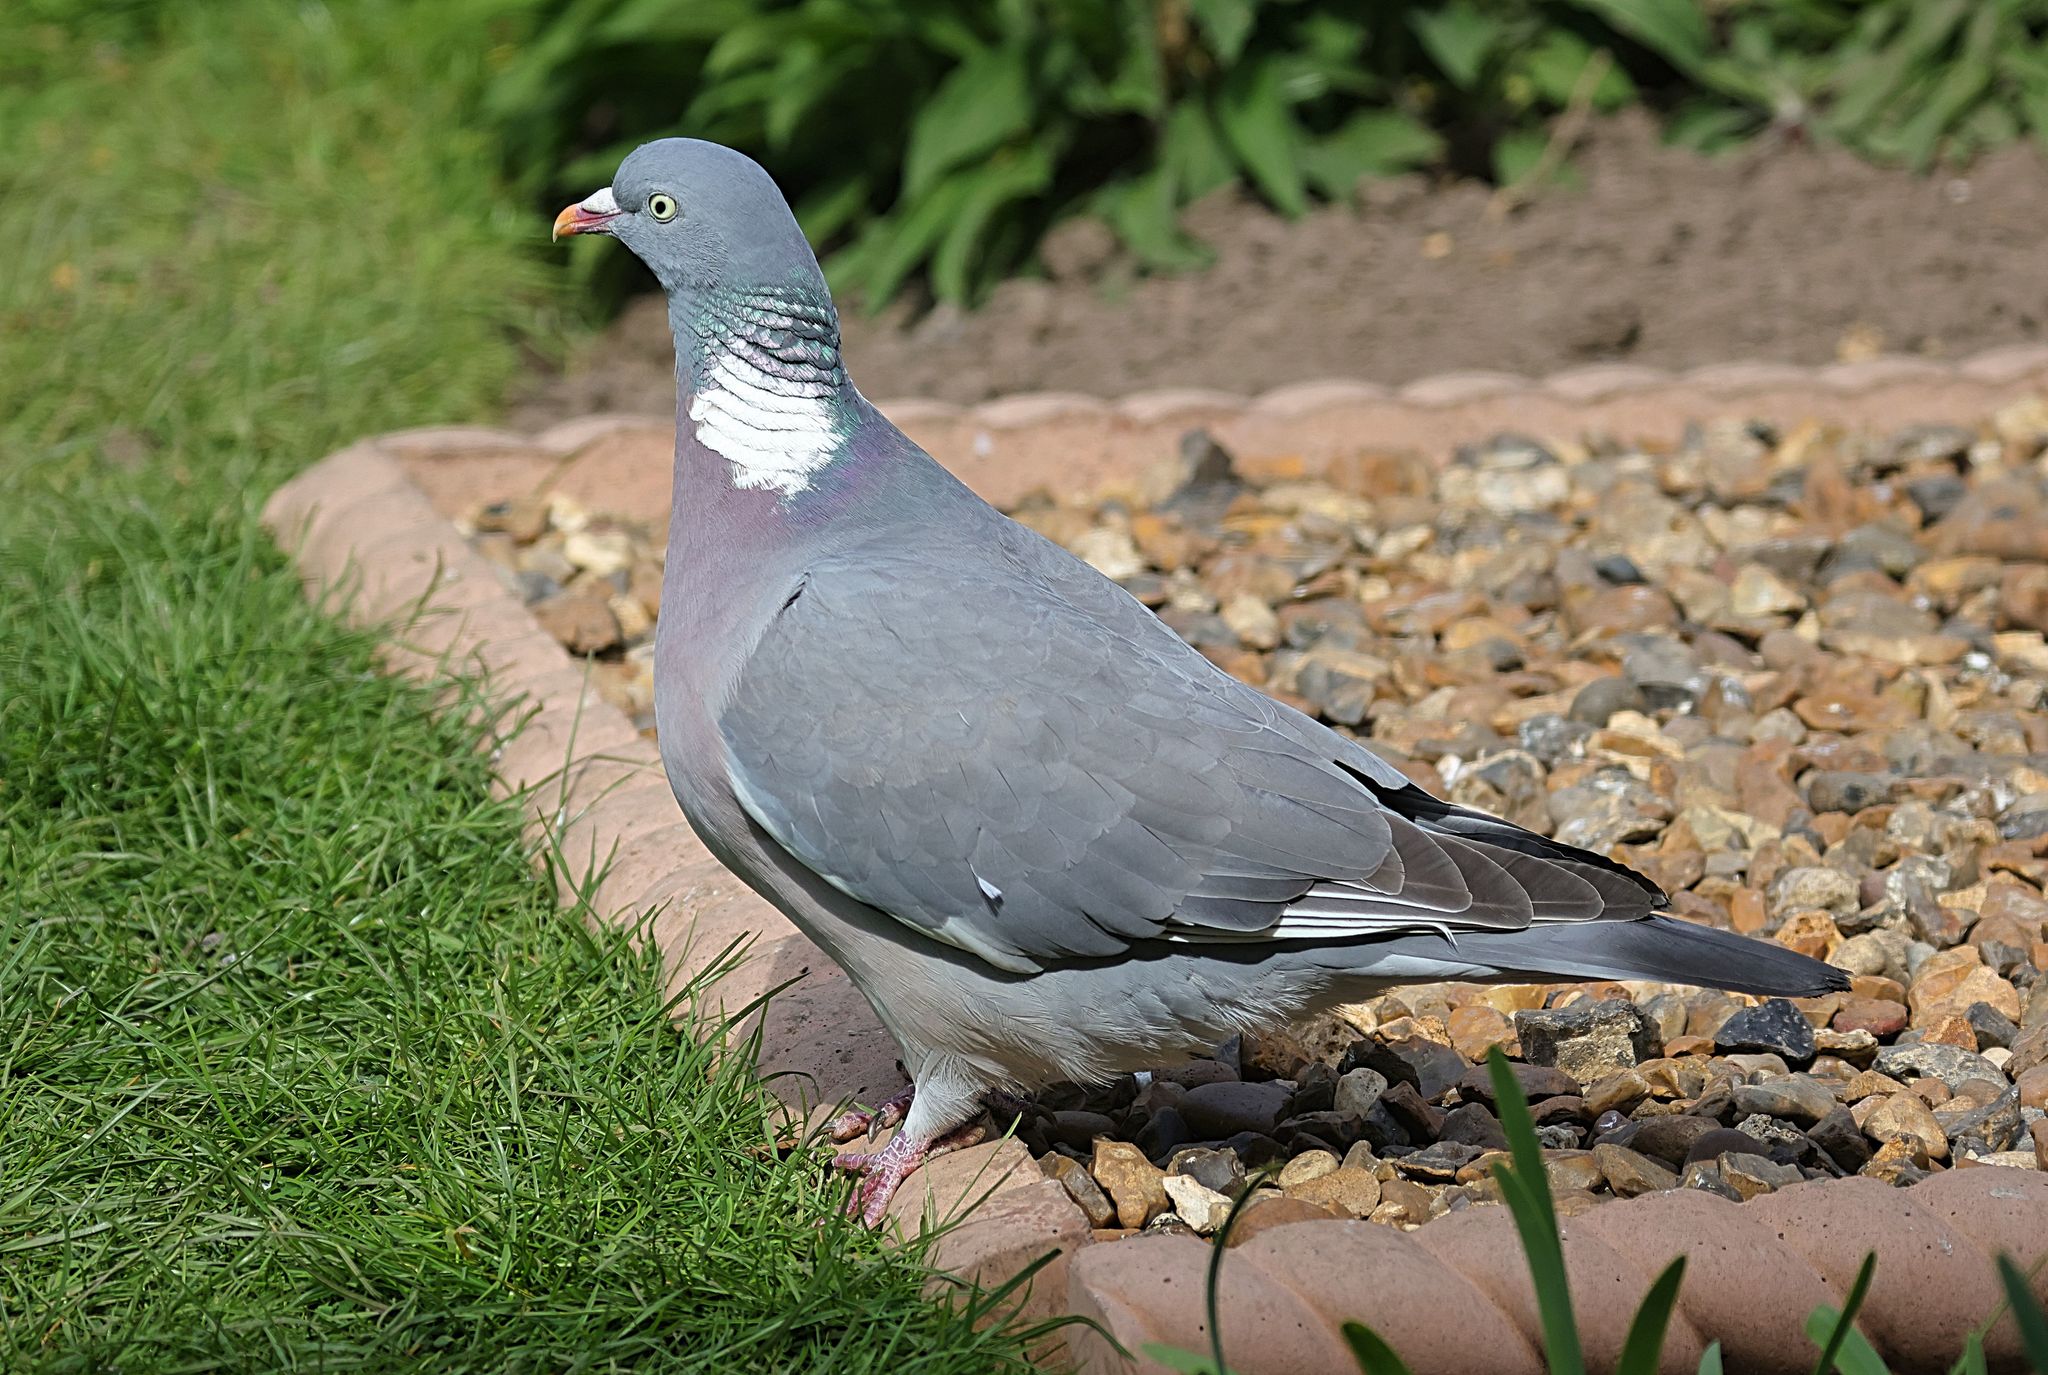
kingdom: Animalia
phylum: Chordata
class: Aves
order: Columbiformes
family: Columbidae
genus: Columba
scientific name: Columba palumbus
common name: Common wood pigeon
